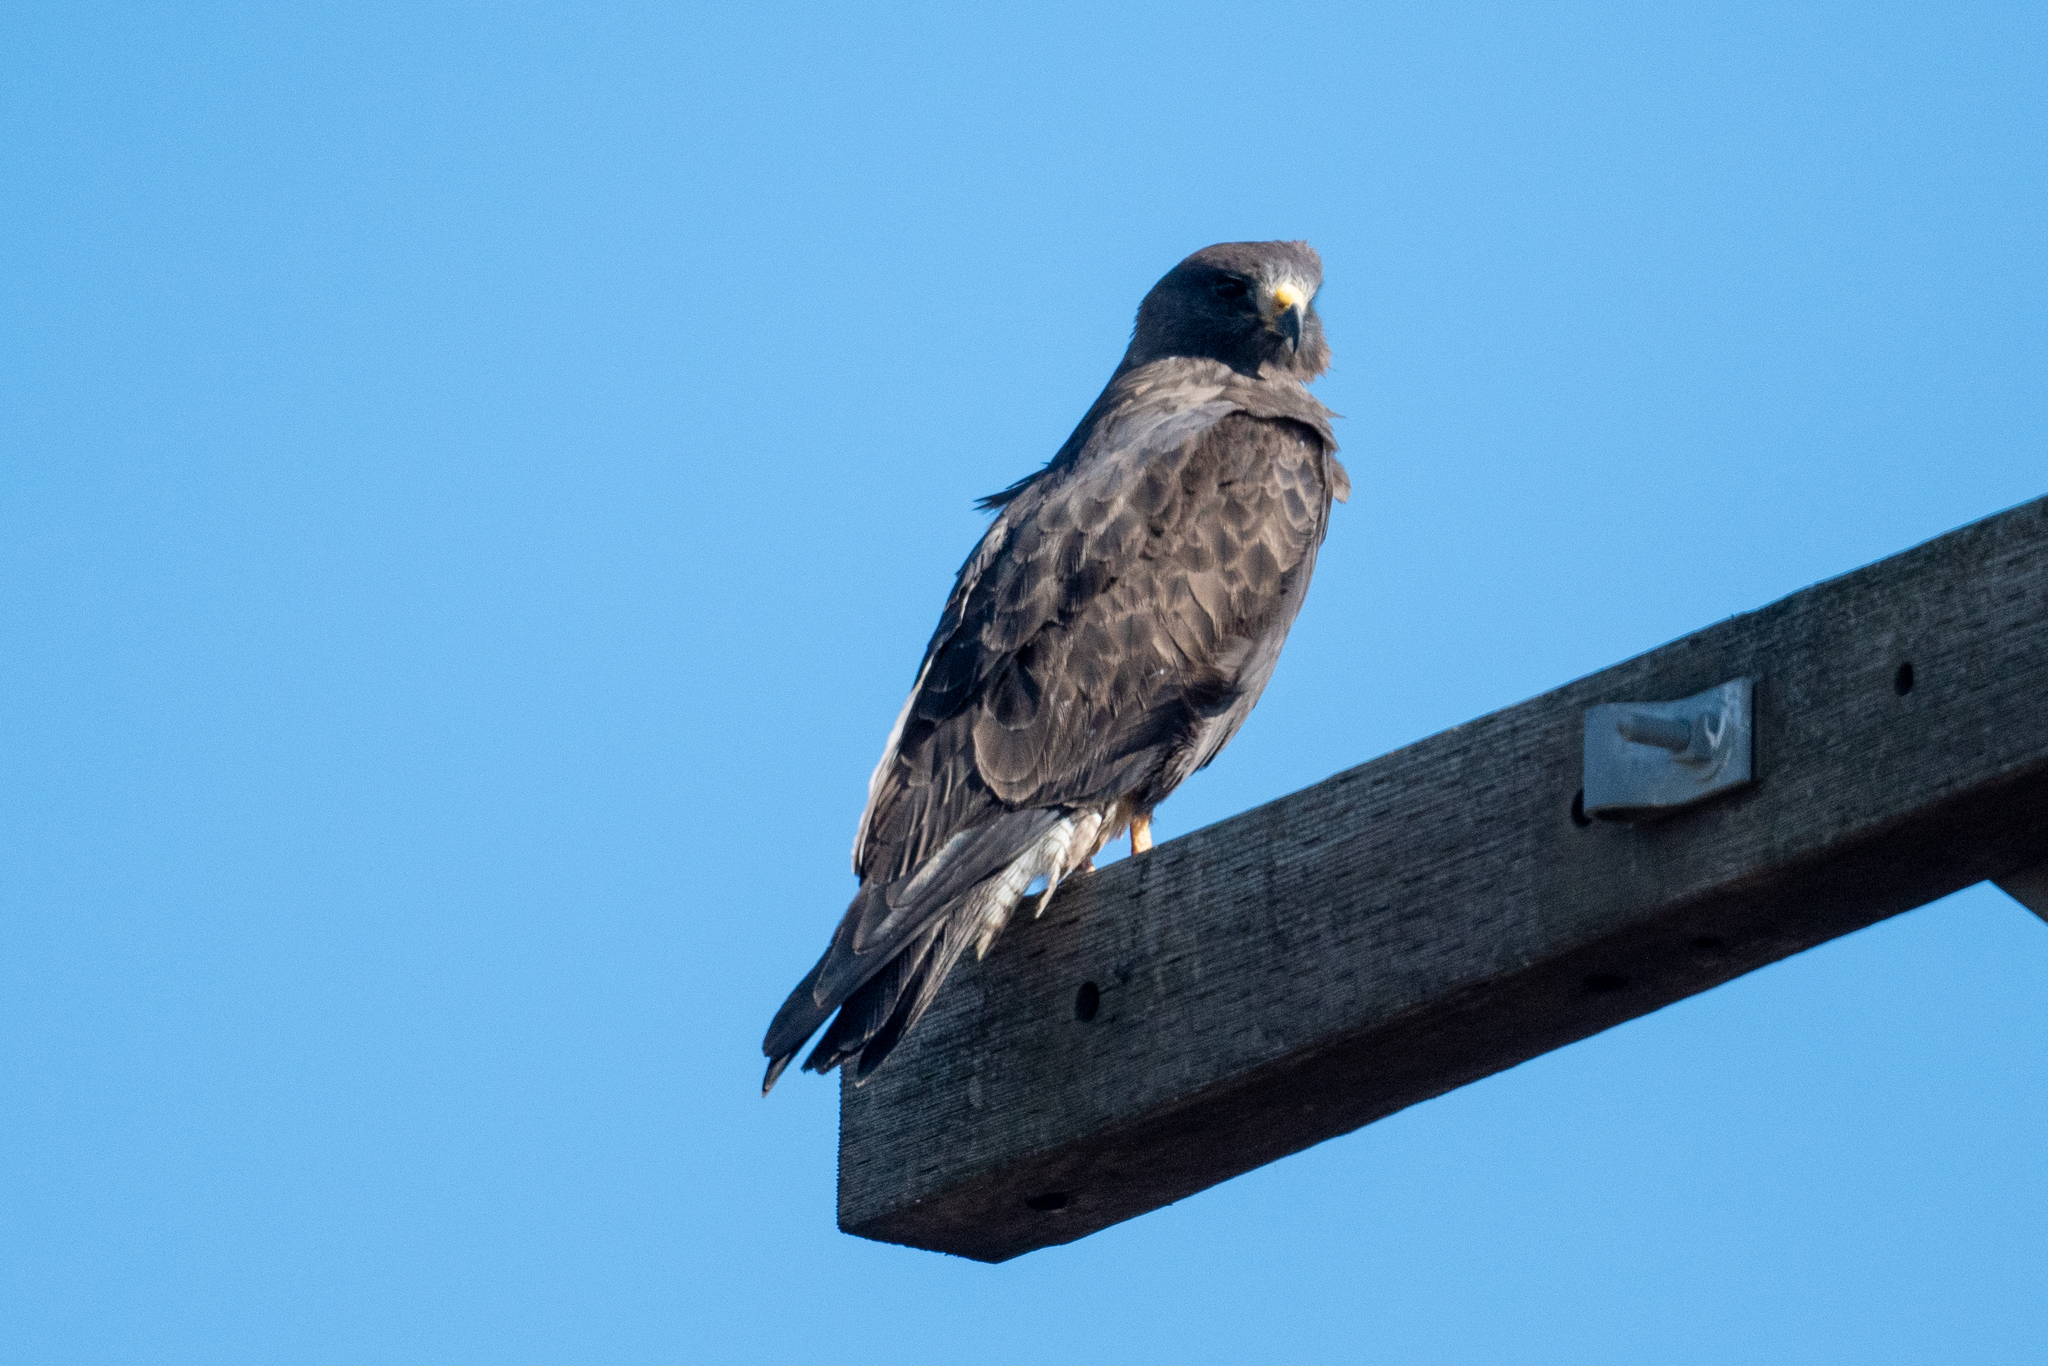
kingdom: Animalia
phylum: Chordata
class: Aves
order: Accipitriformes
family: Accipitridae
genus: Buteo
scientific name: Buteo swainsoni
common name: Swainson's hawk
